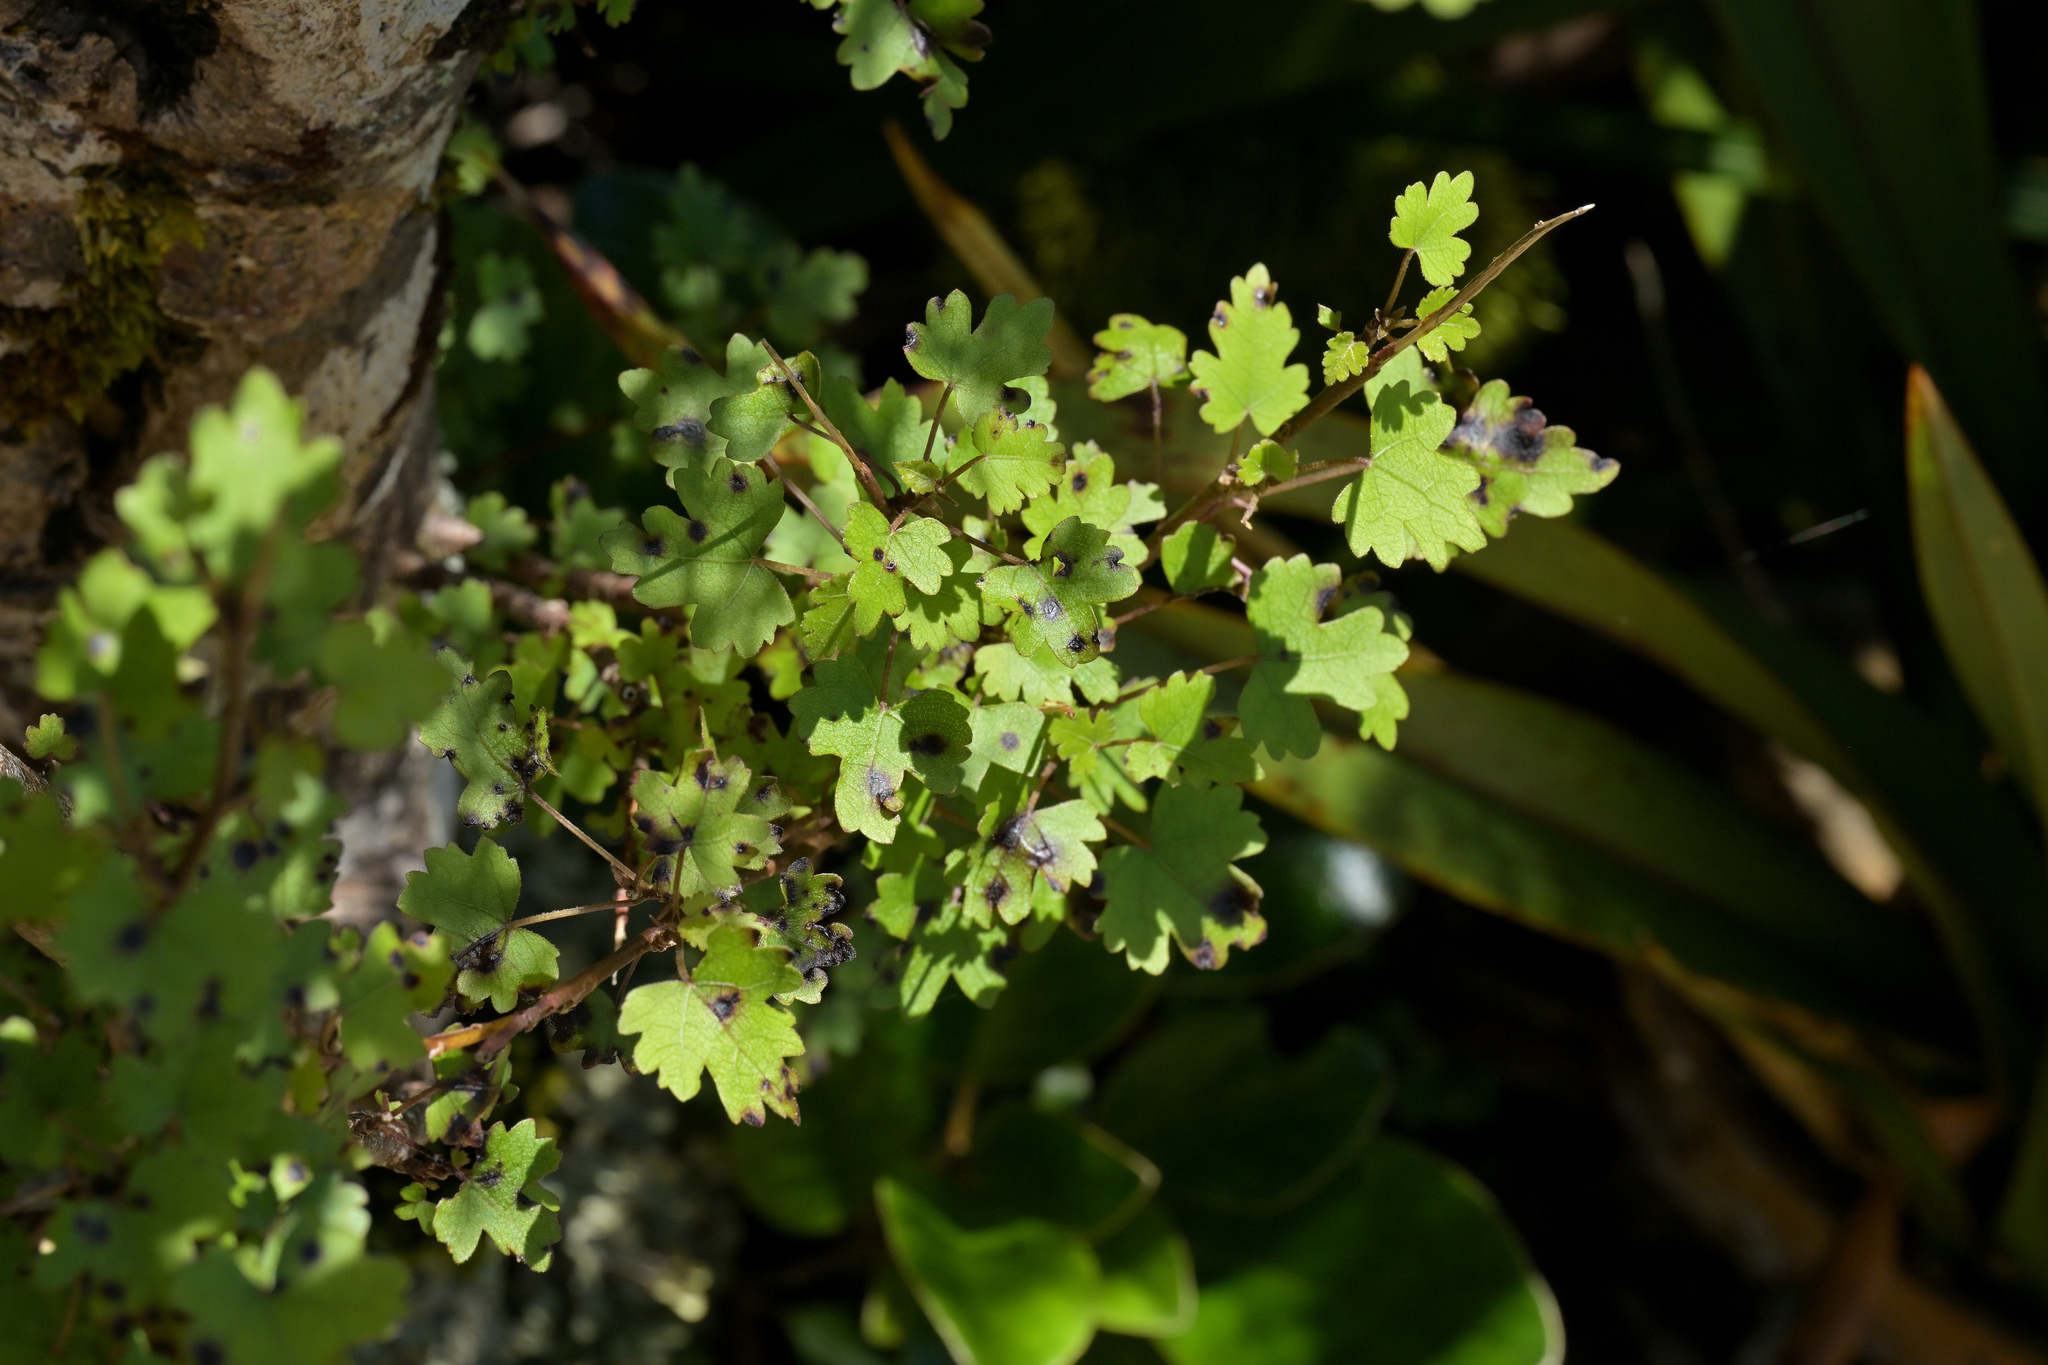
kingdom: Plantae
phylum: Tracheophyta
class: Magnoliopsida
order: Malvales
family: Malvaceae
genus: Hoheria
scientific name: Hoheria glabrata
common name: Mountain-ribbon
